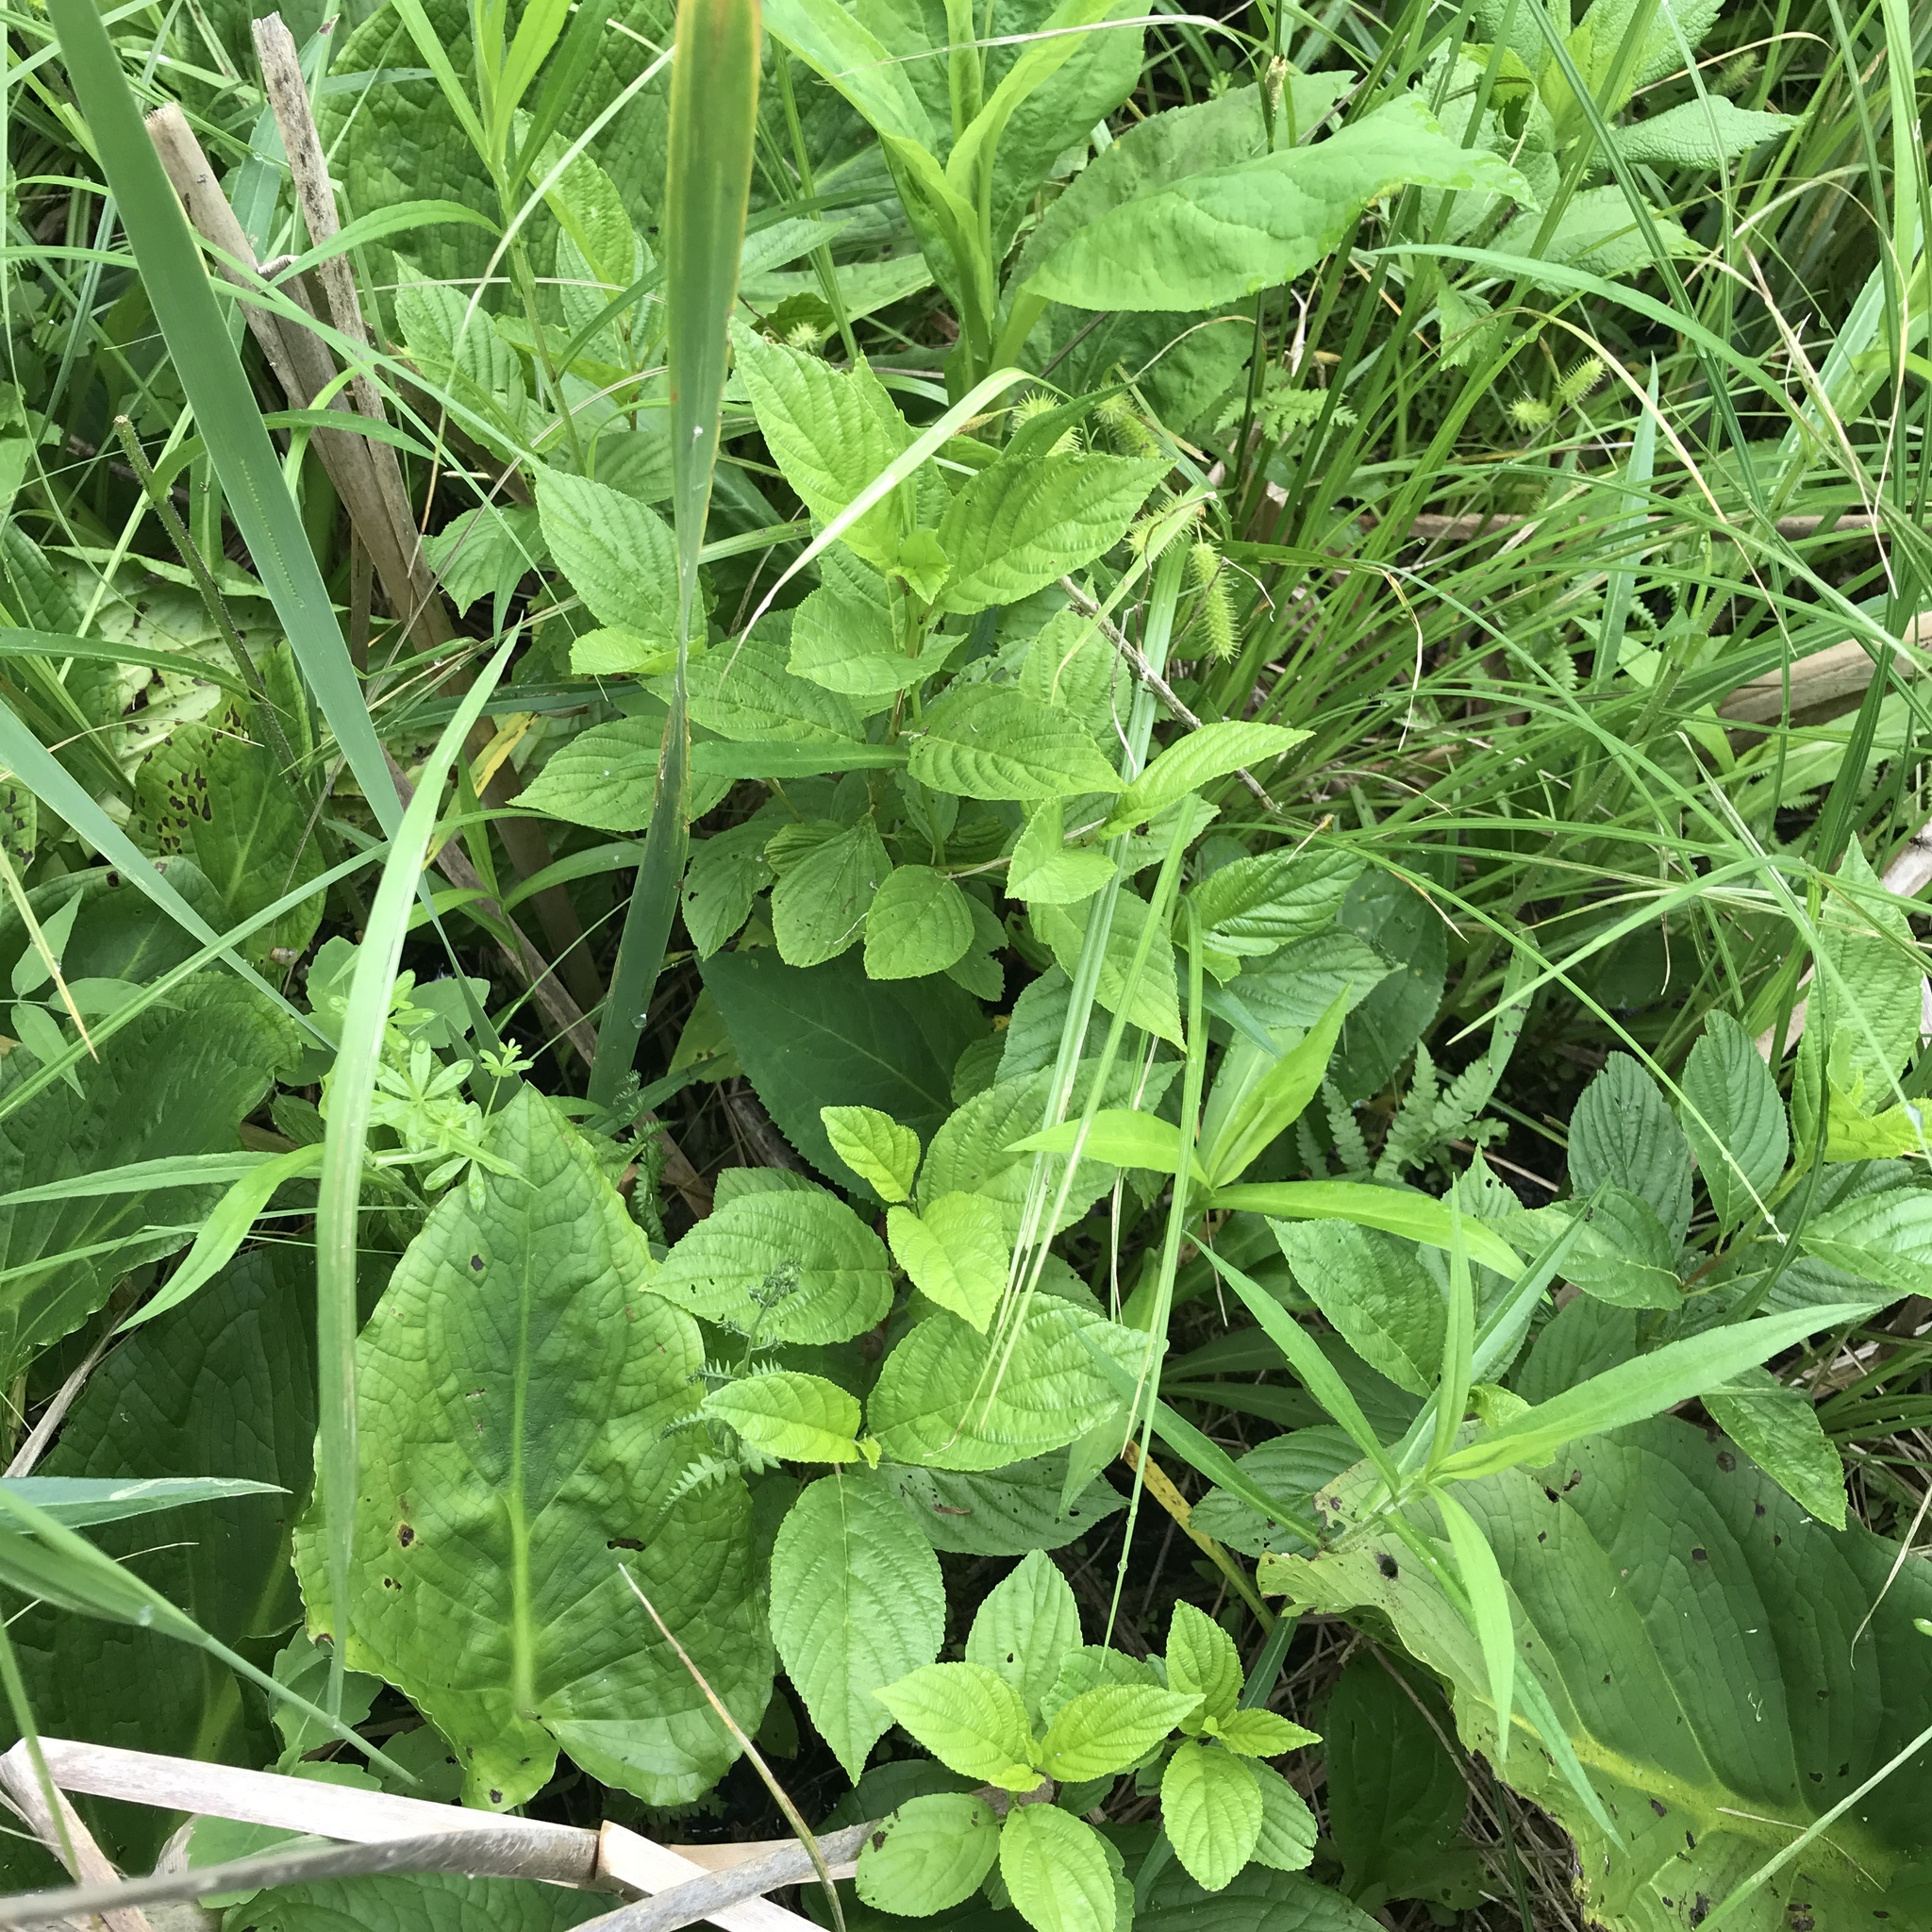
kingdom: Plantae
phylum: Tracheophyta
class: Magnoliopsida
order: Rosales
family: Rhamnaceae
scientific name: Rhamnaceae
